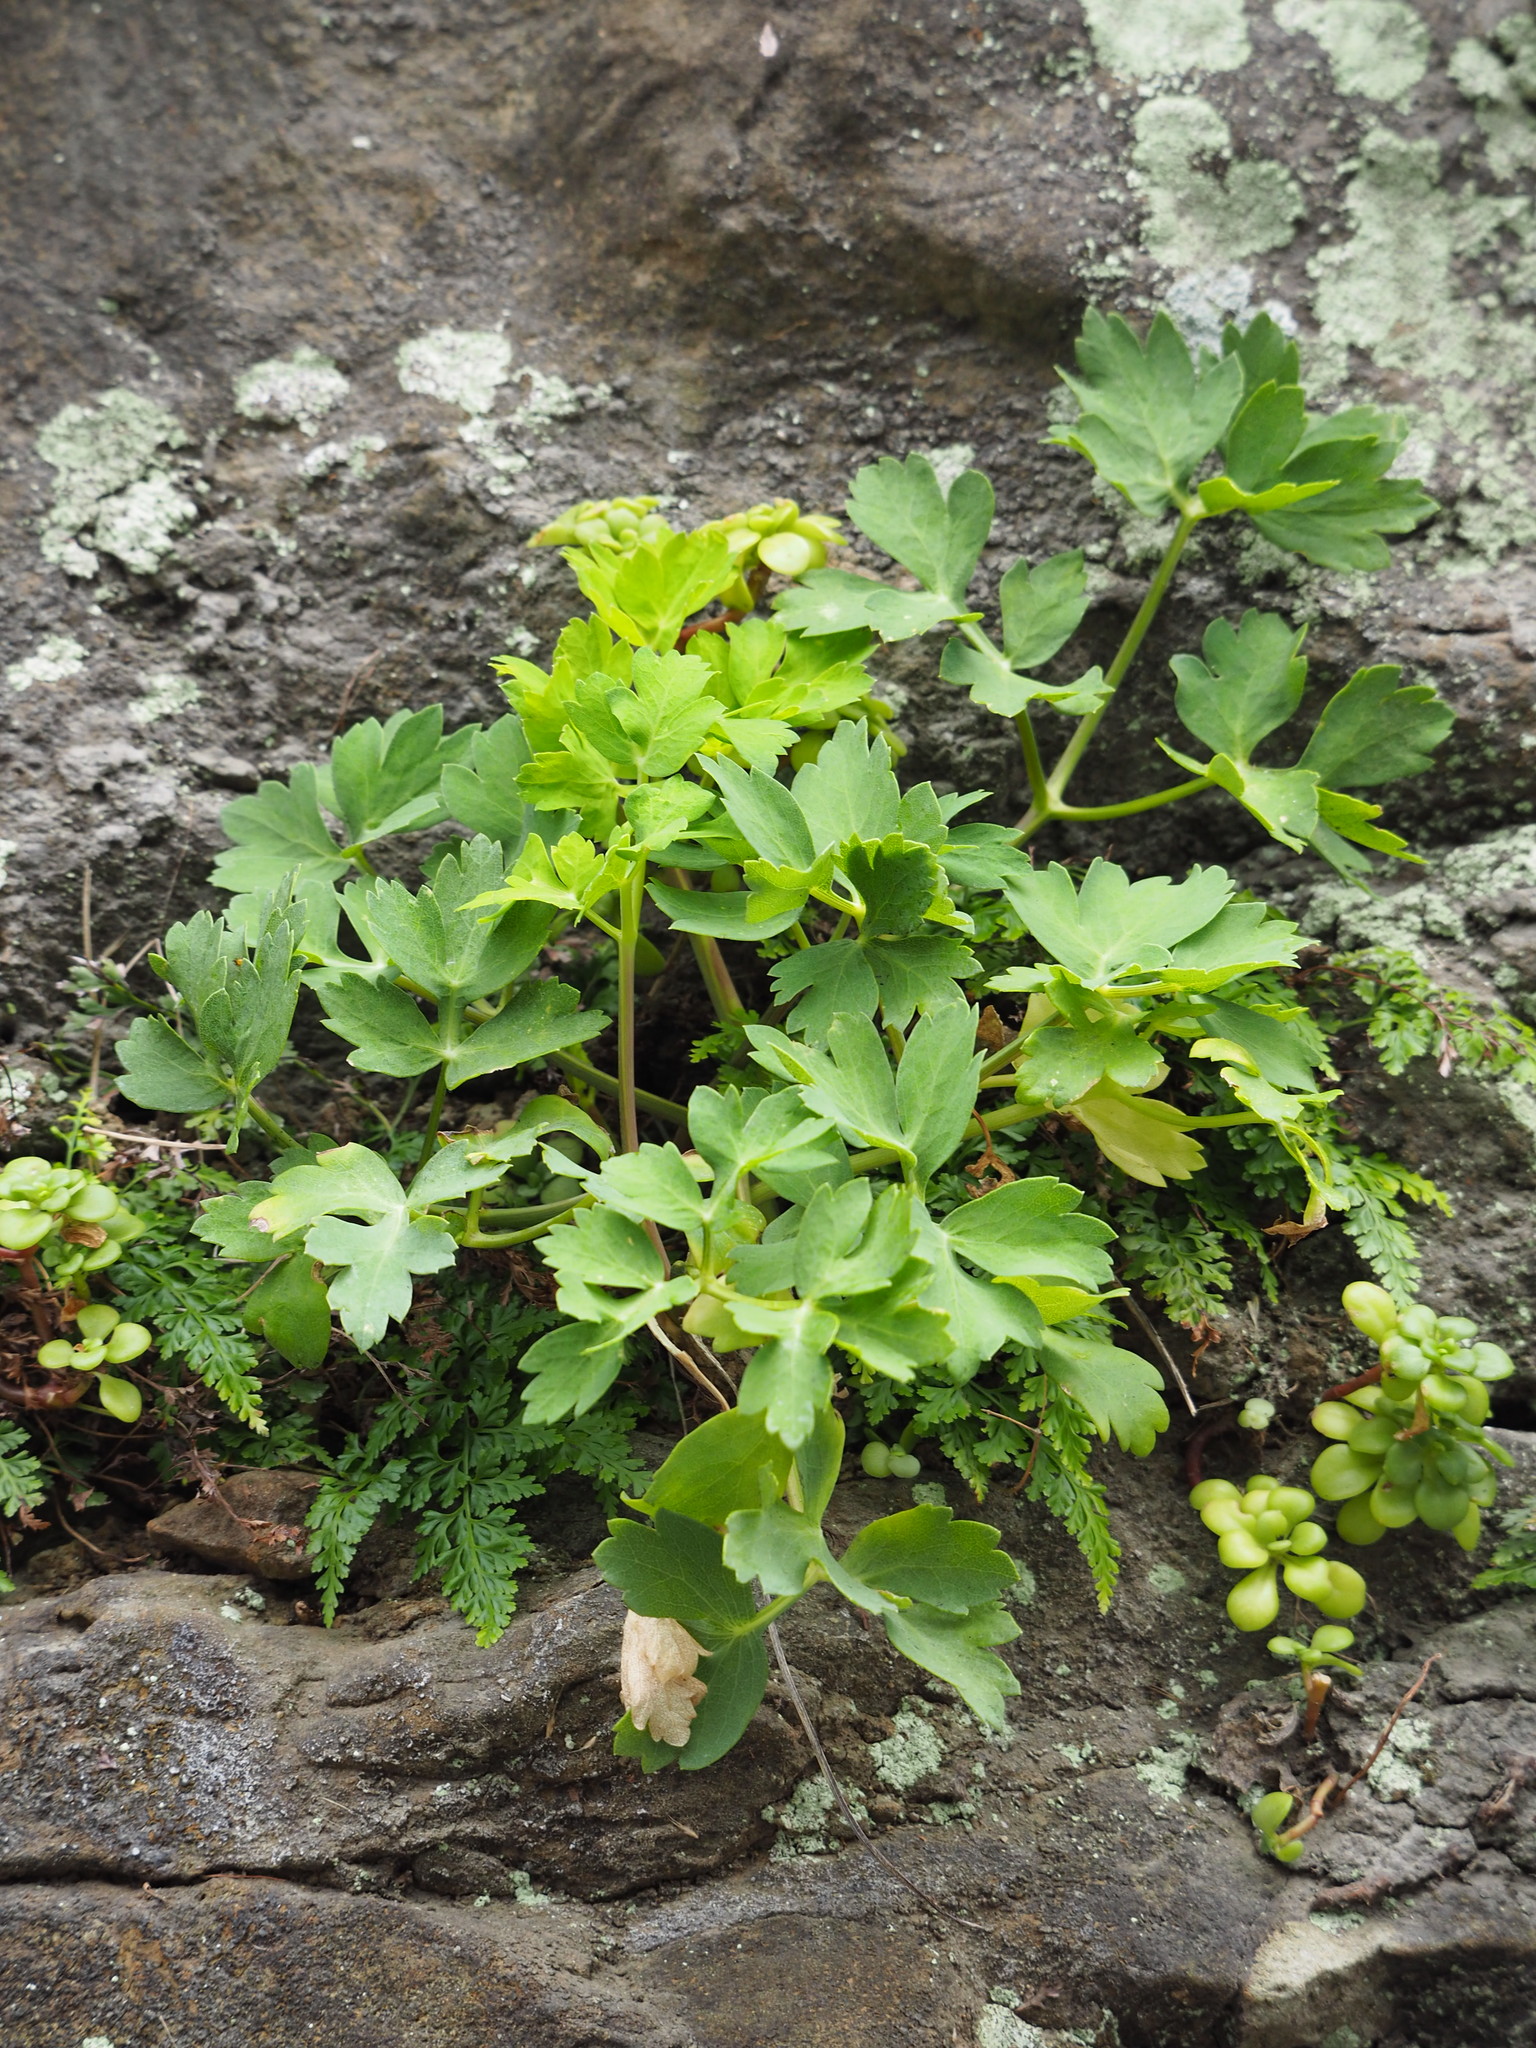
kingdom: Plantae
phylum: Tracheophyta
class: Magnoliopsida
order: Apiales
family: Apiaceae
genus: Peucedanum
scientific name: Peucedanum japonicum
